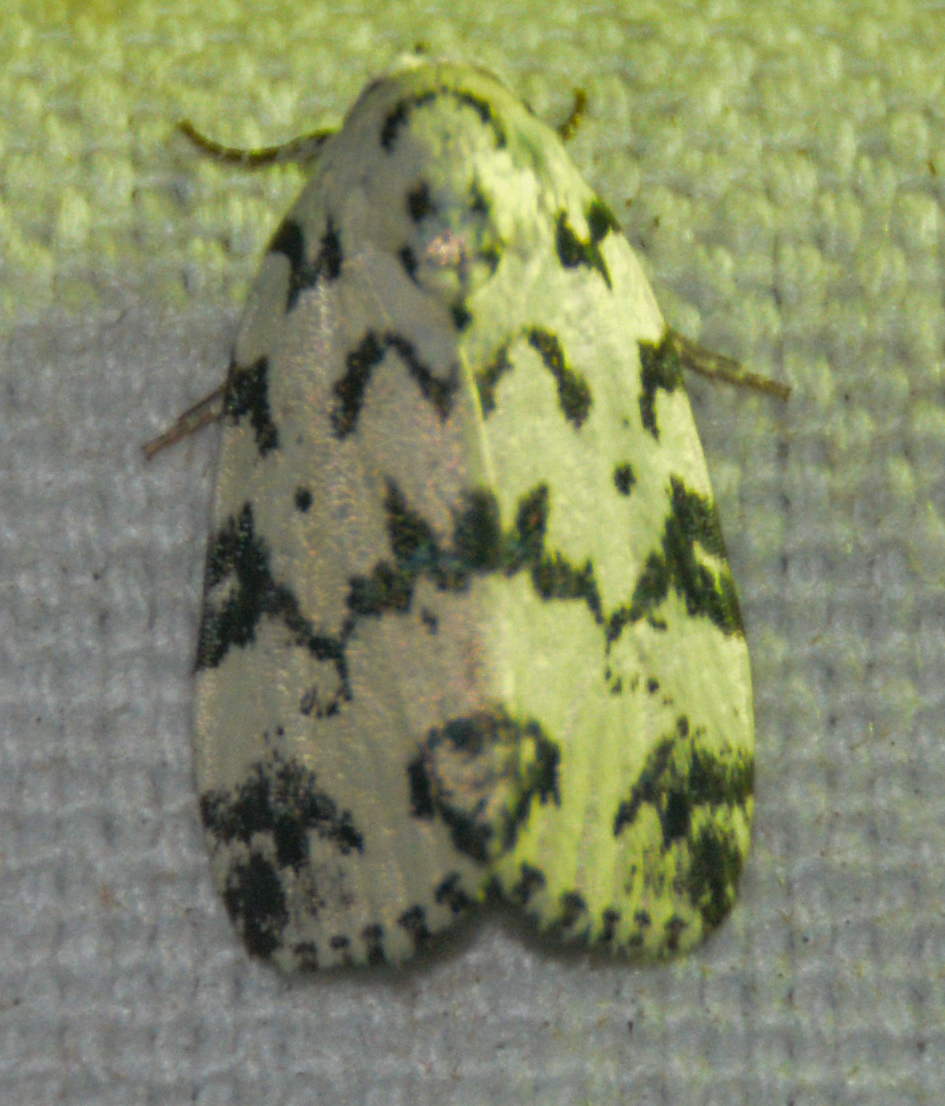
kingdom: Animalia
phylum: Arthropoda
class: Insecta
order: Lepidoptera
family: Noctuidae
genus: Polygrammate
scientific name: Polygrammate hebraeicum
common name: Hebrew moth
